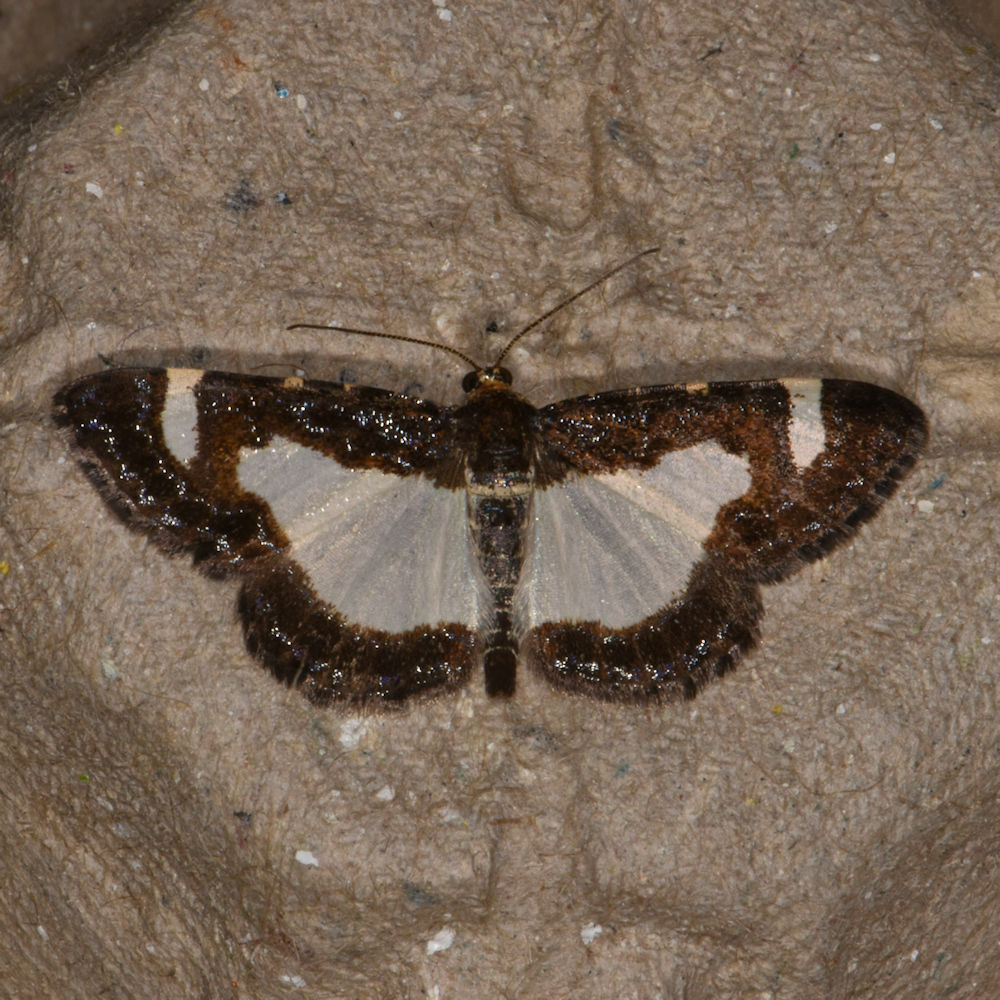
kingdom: Animalia
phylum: Arthropoda
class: Insecta
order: Lepidoptera
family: Geometridae
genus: Heliomata
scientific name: Heliomata cycladata
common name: Common spring moth
